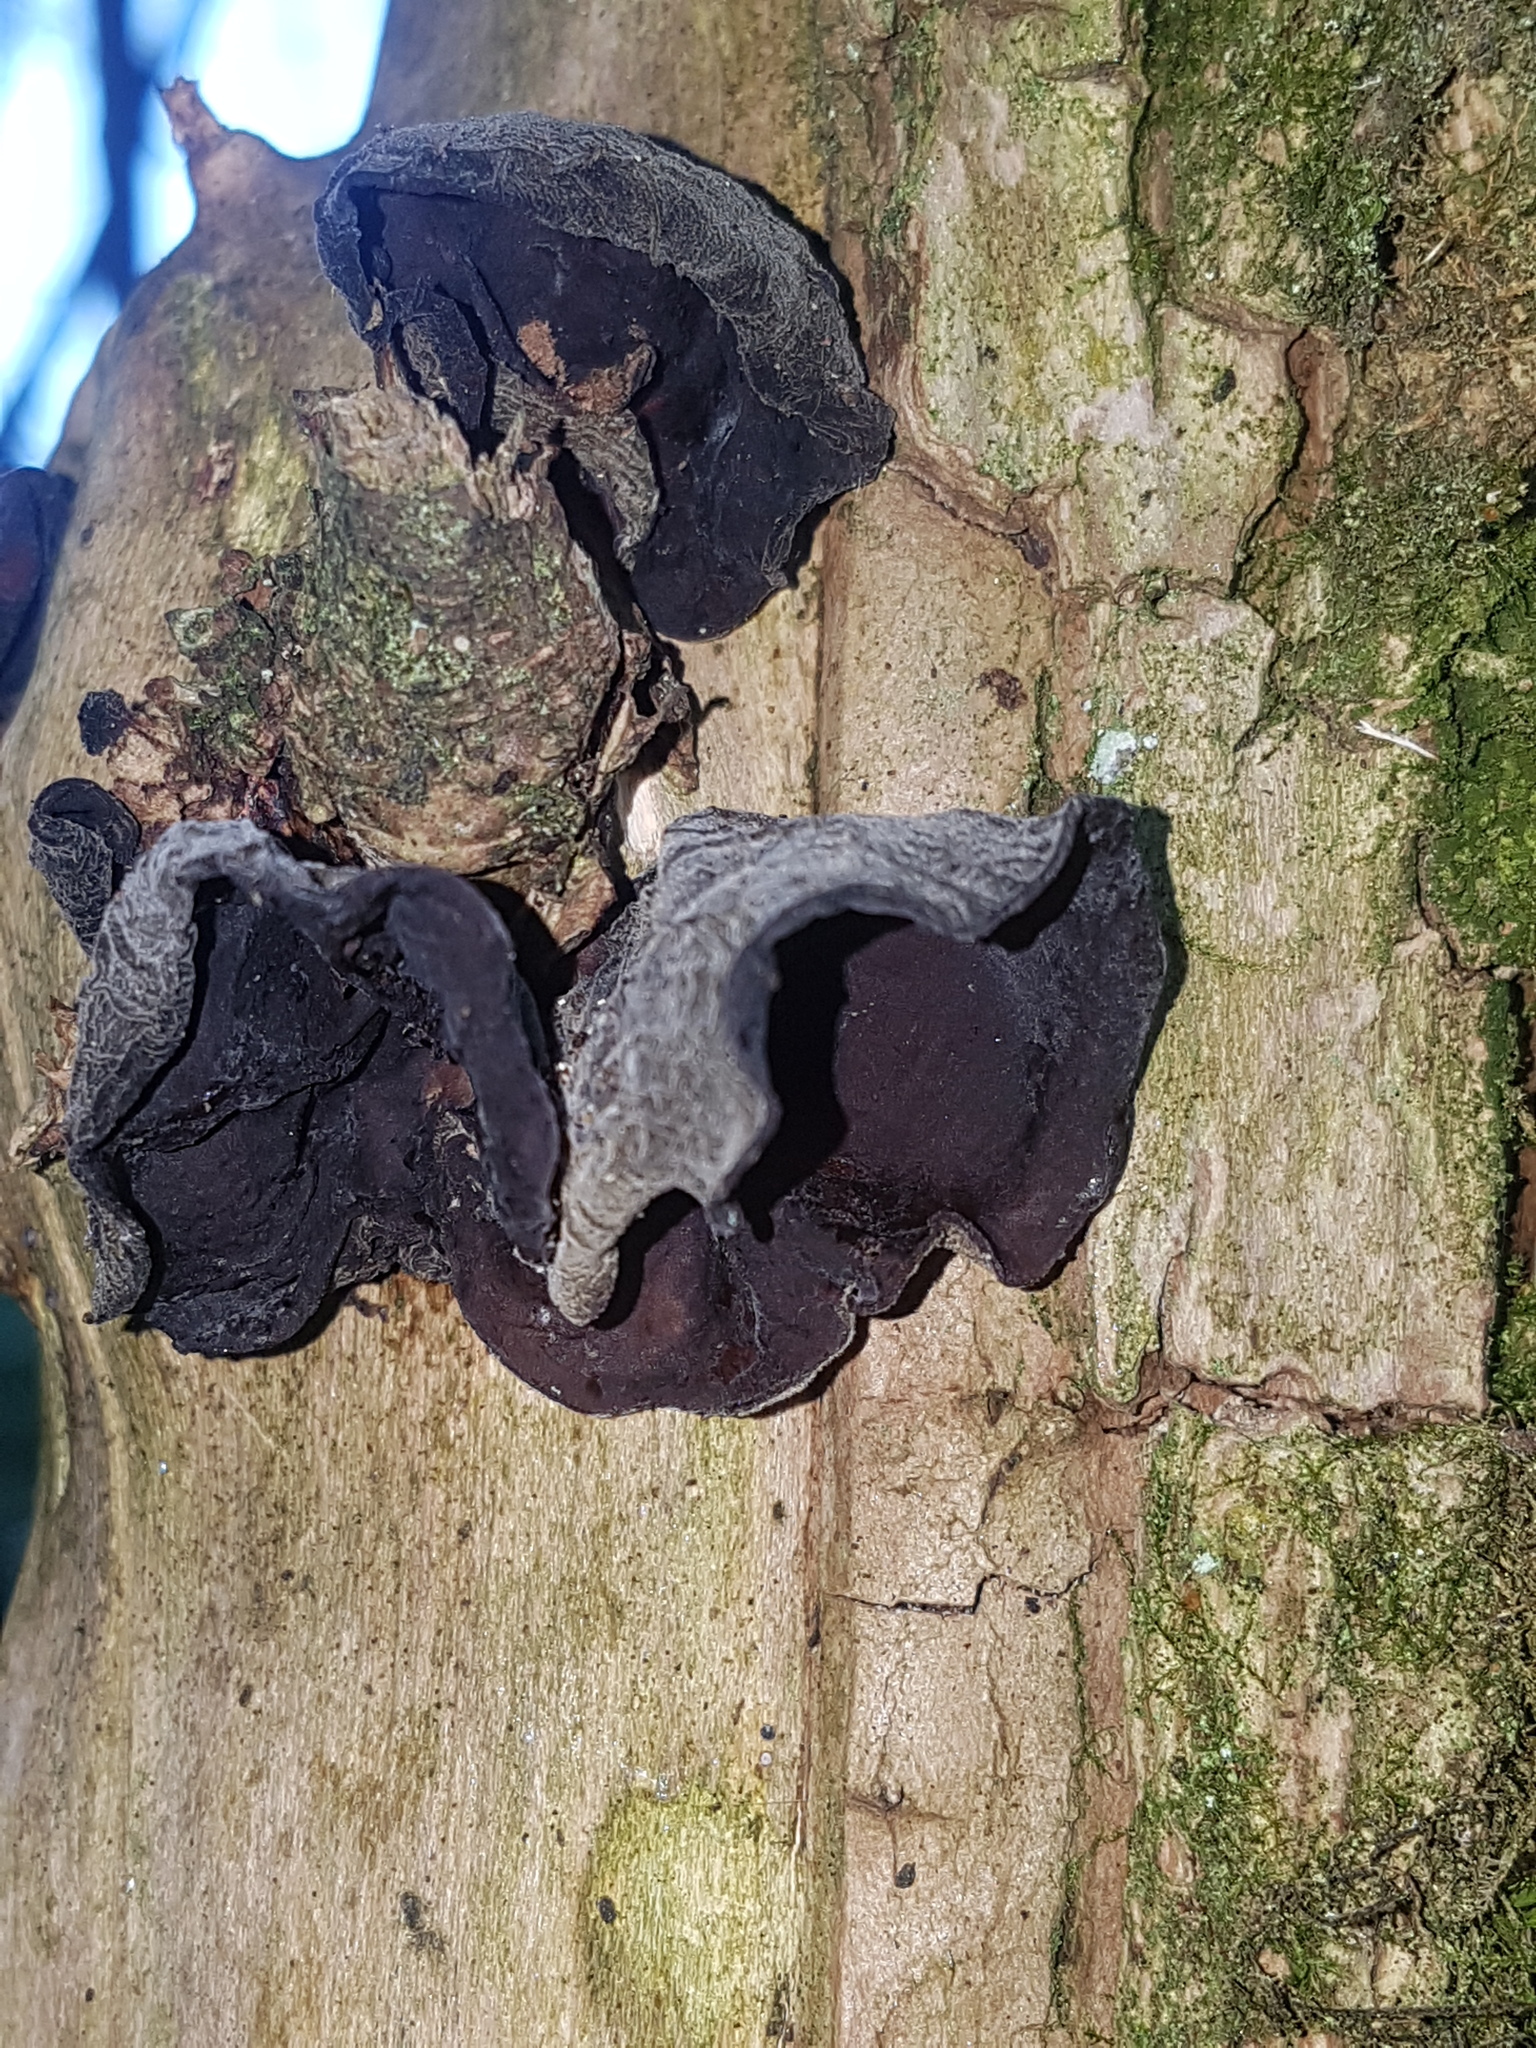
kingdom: Fungi
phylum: Basidiomycota
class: Agaricomycetes
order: Auriculariales
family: Auriculariaceae
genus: Auricularia
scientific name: Auricularia auricula-judae
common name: Jelly ear
